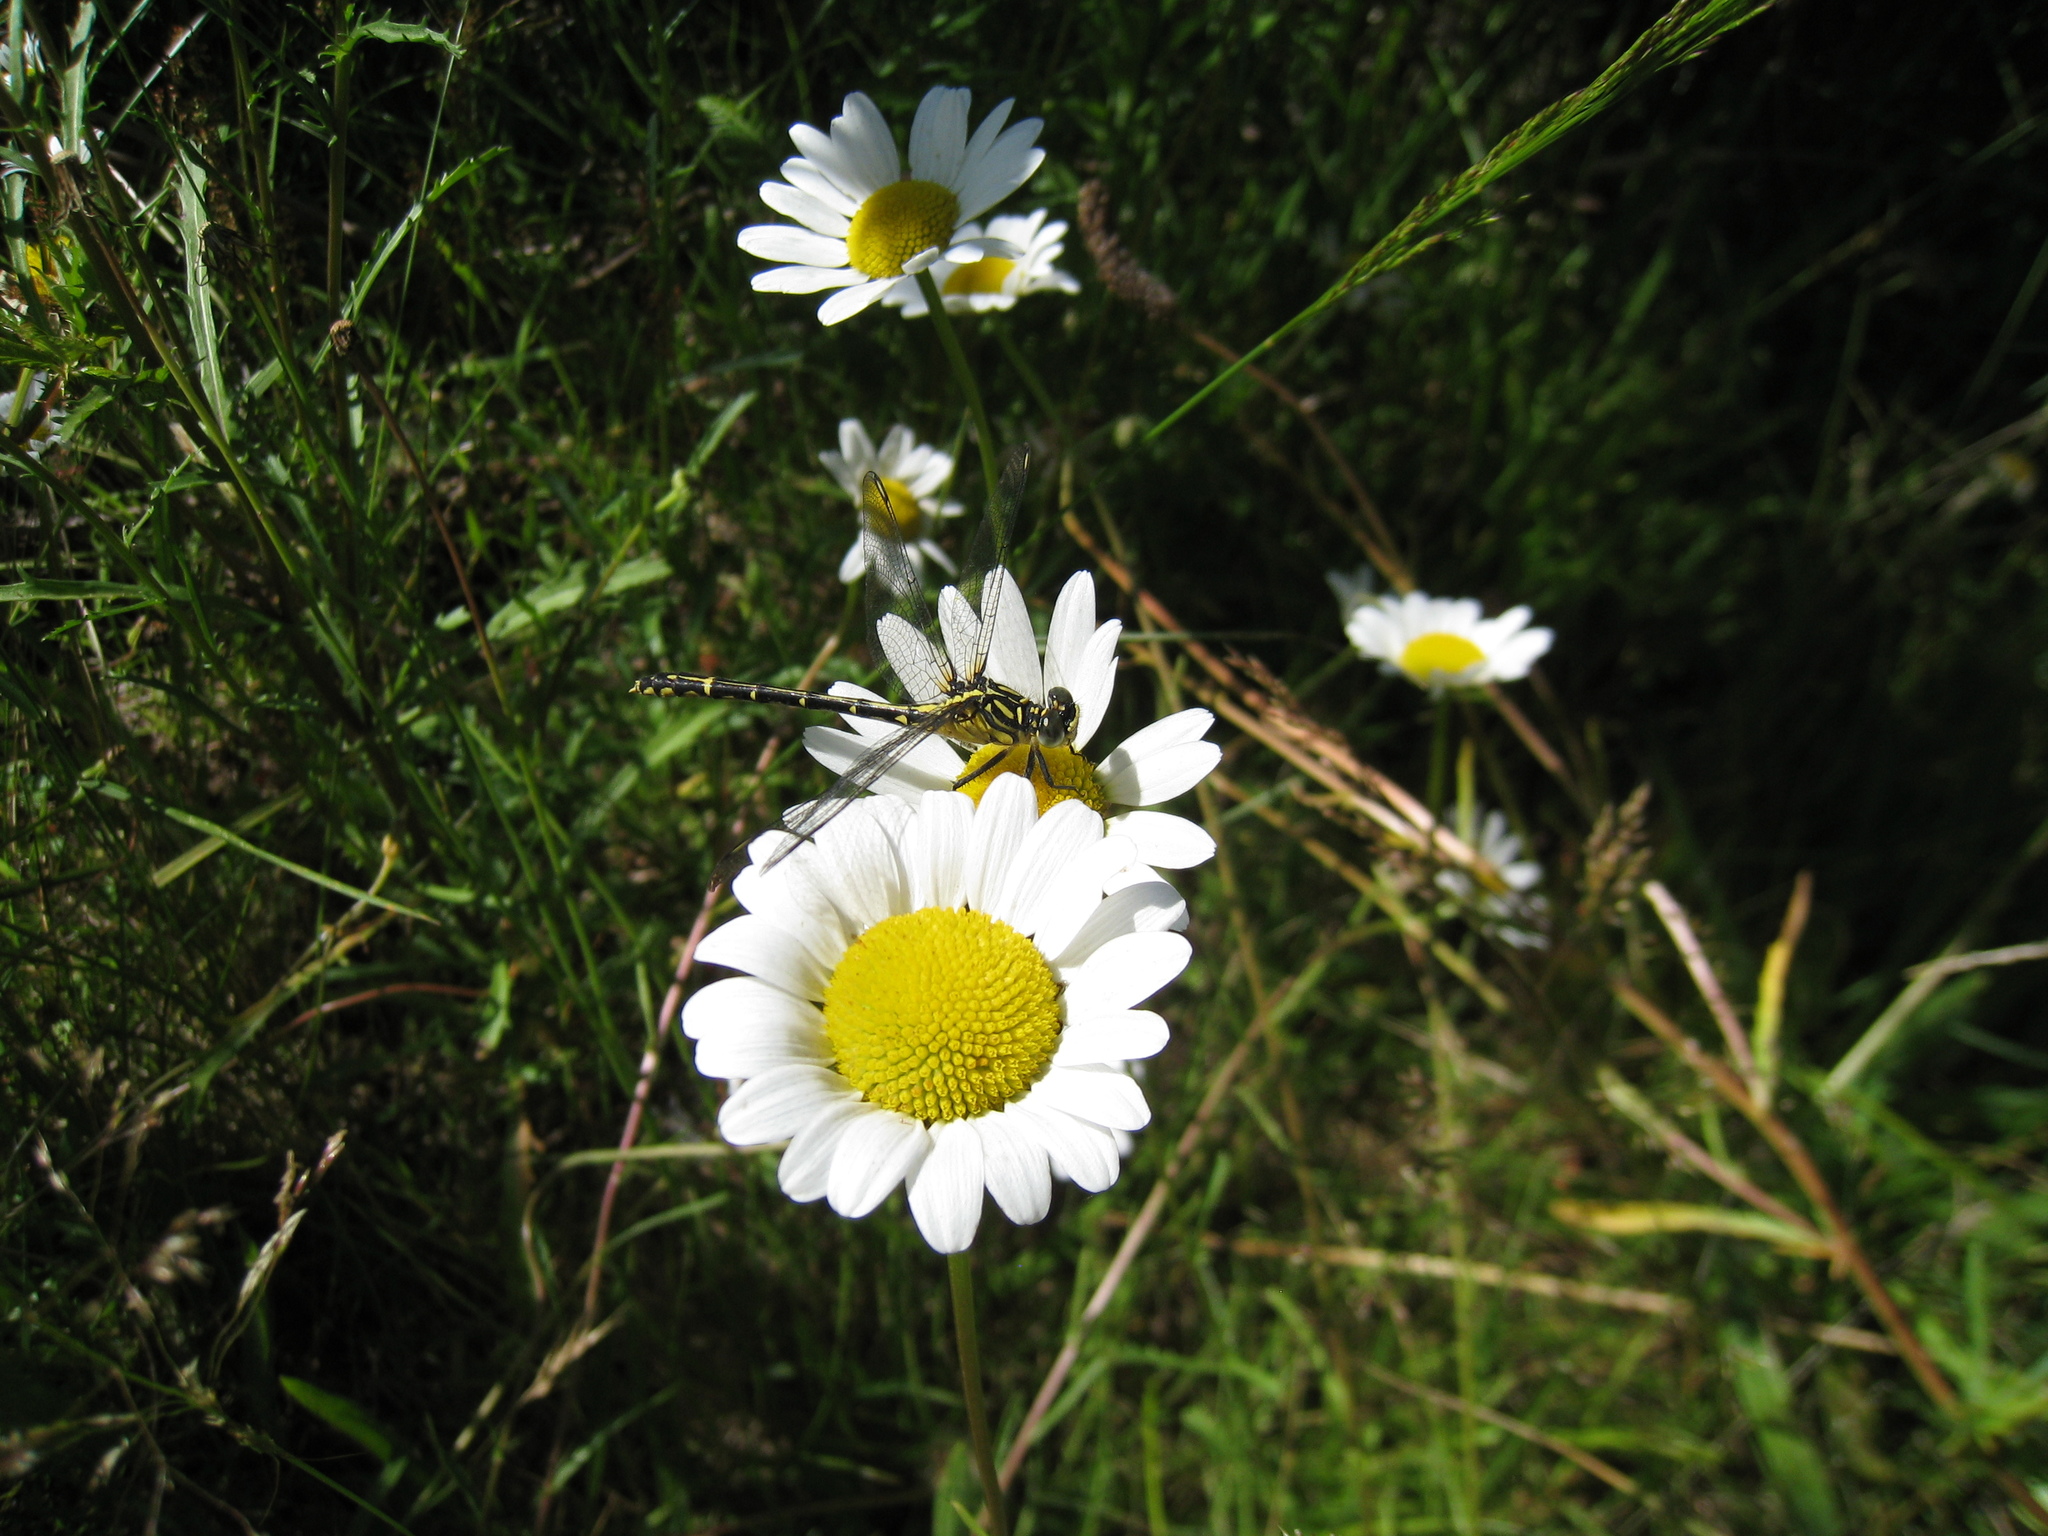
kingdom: Animalia
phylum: Arthropoda
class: Insecta
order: Odonata
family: Gomphidae
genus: Austrogomphus
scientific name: Austrogomphus ochraceus
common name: Jade hunter
